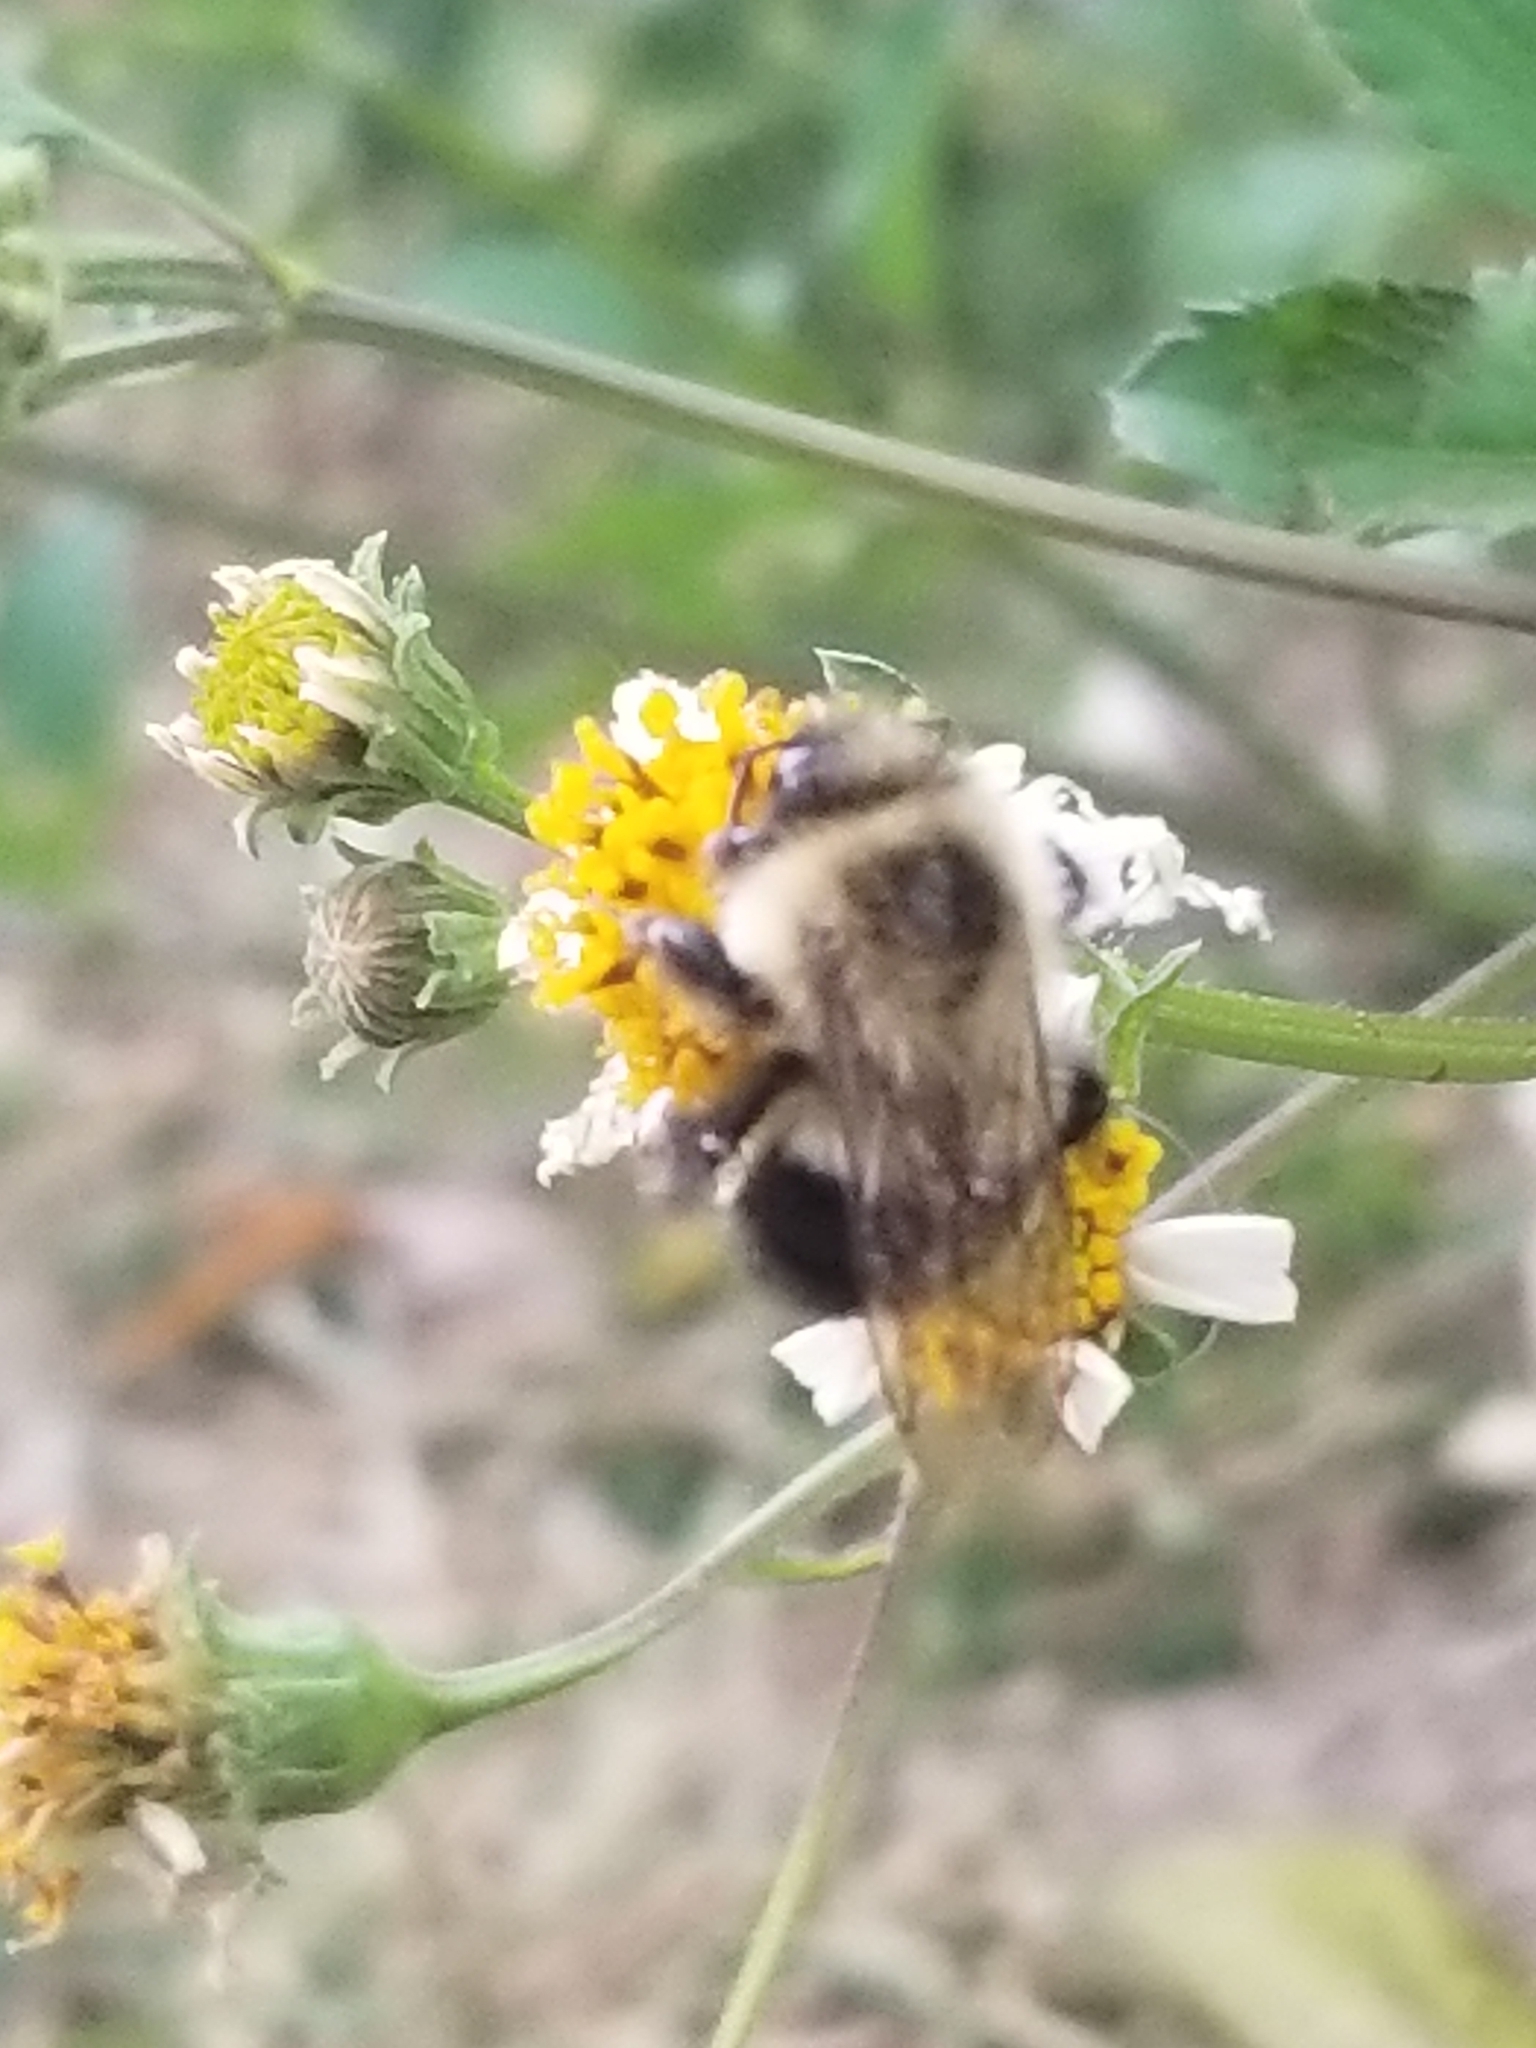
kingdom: Animalia
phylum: Arthropoda
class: Insecta
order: Hymenoptera
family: Apidae
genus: Bombus
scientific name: Bombus impatiens
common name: Common eastern bumble bee
